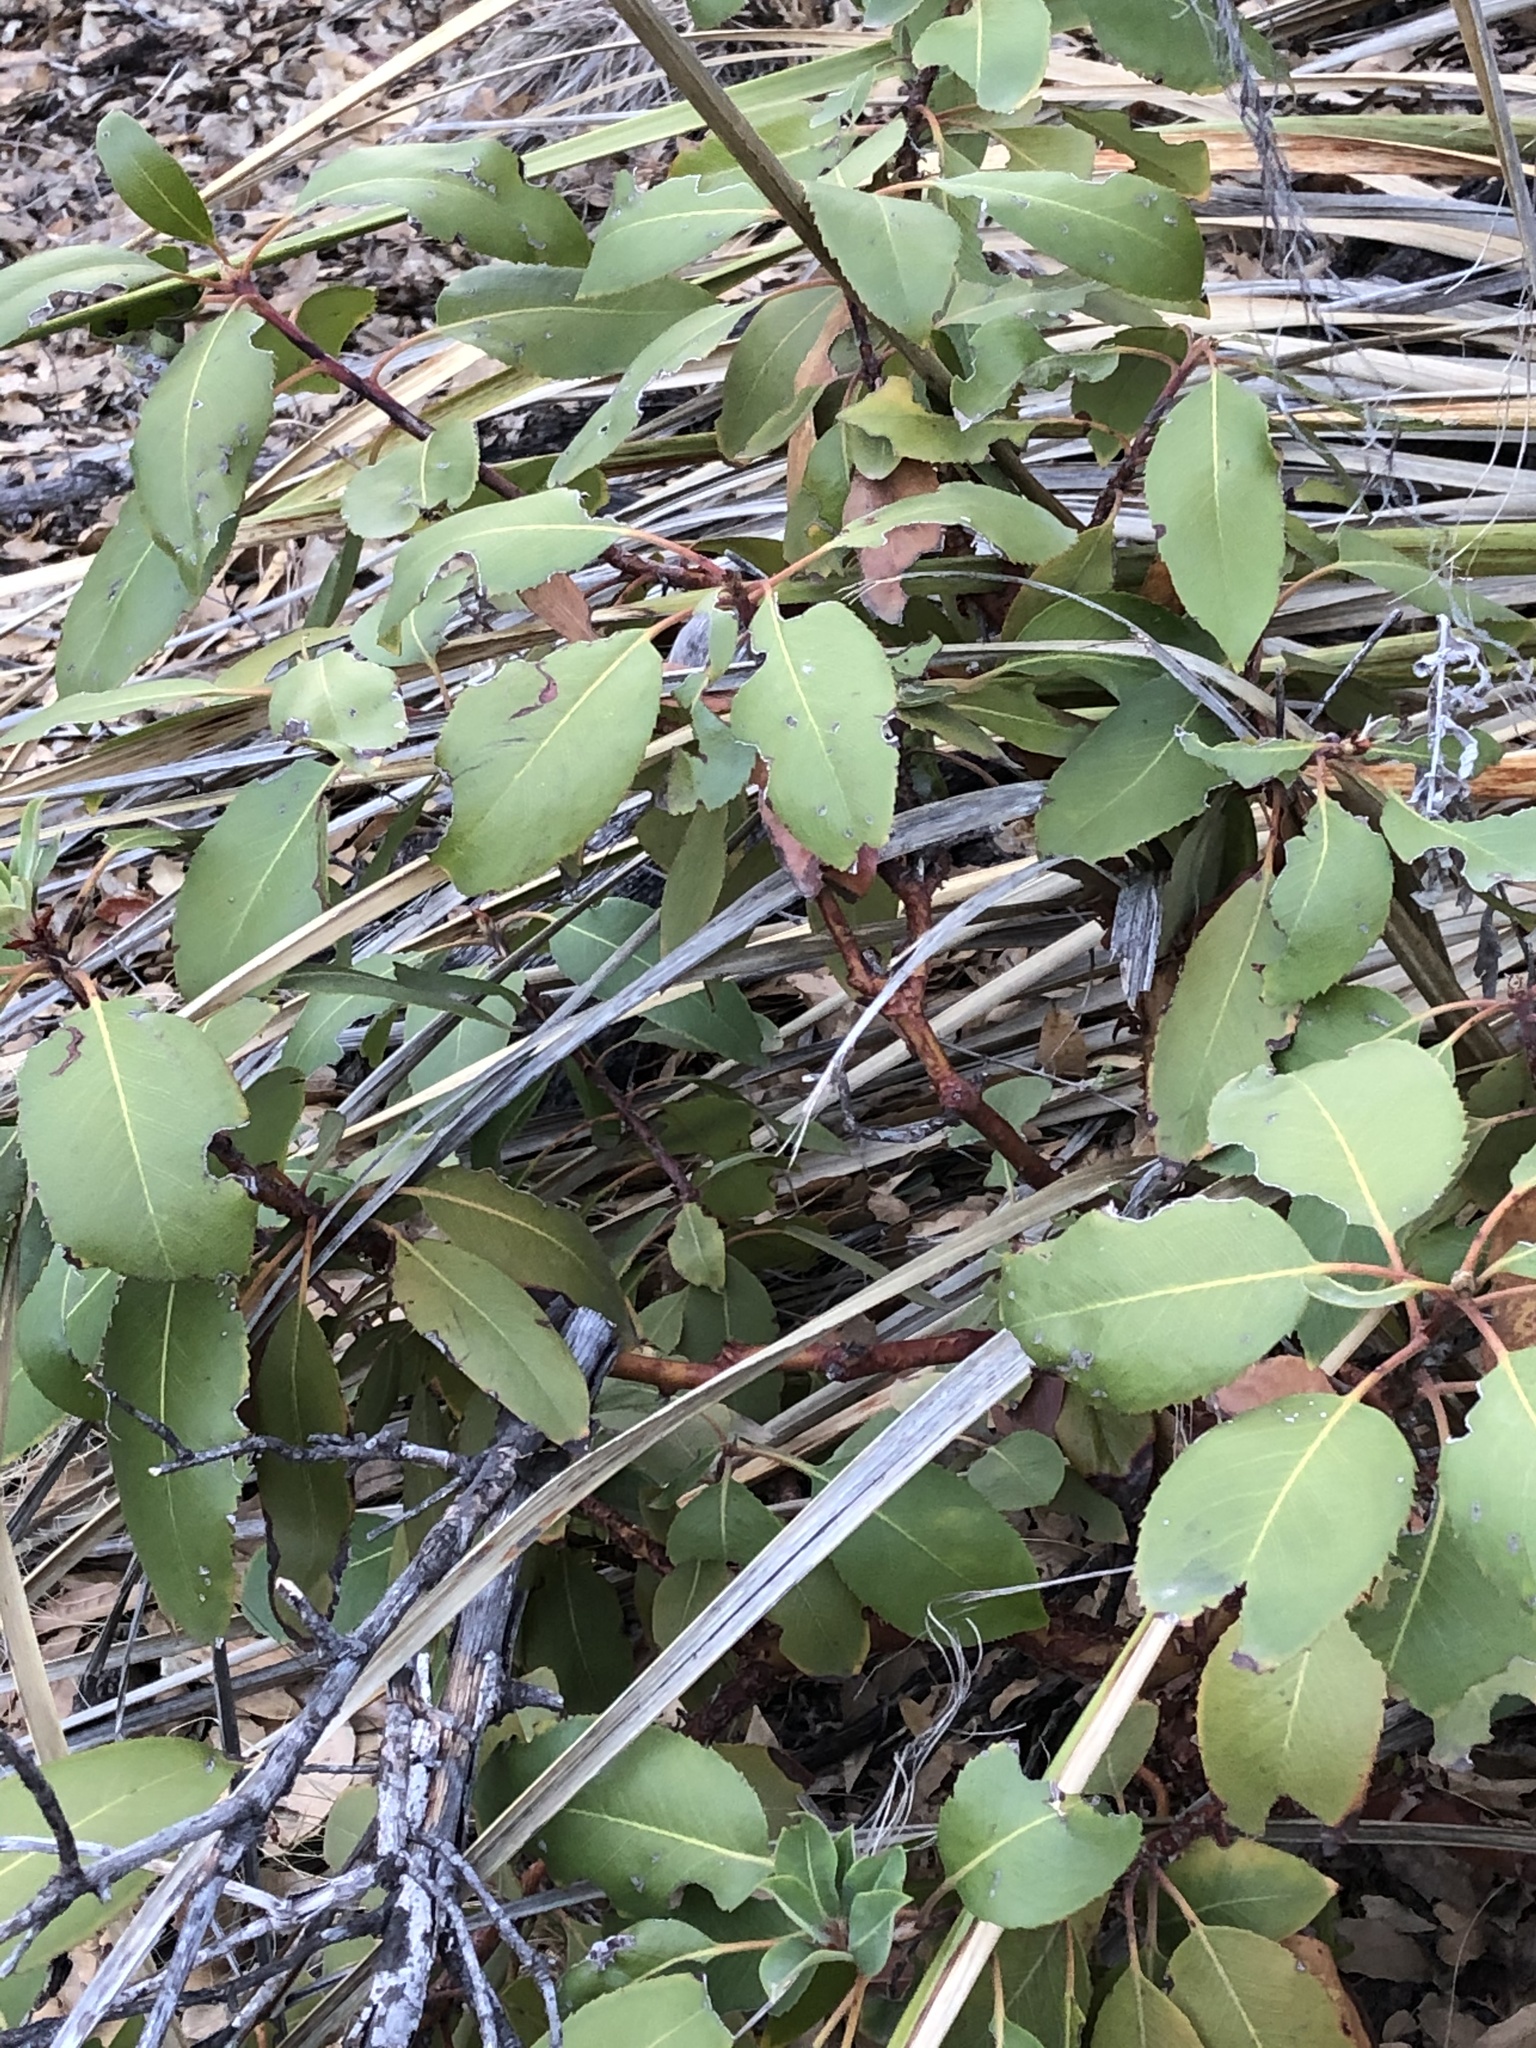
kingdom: Plantae
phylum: Tracheophyta
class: Magnoliopsida
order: Ericales
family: Ericaceae
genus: Arbutus
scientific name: Arbutus xalapensis
